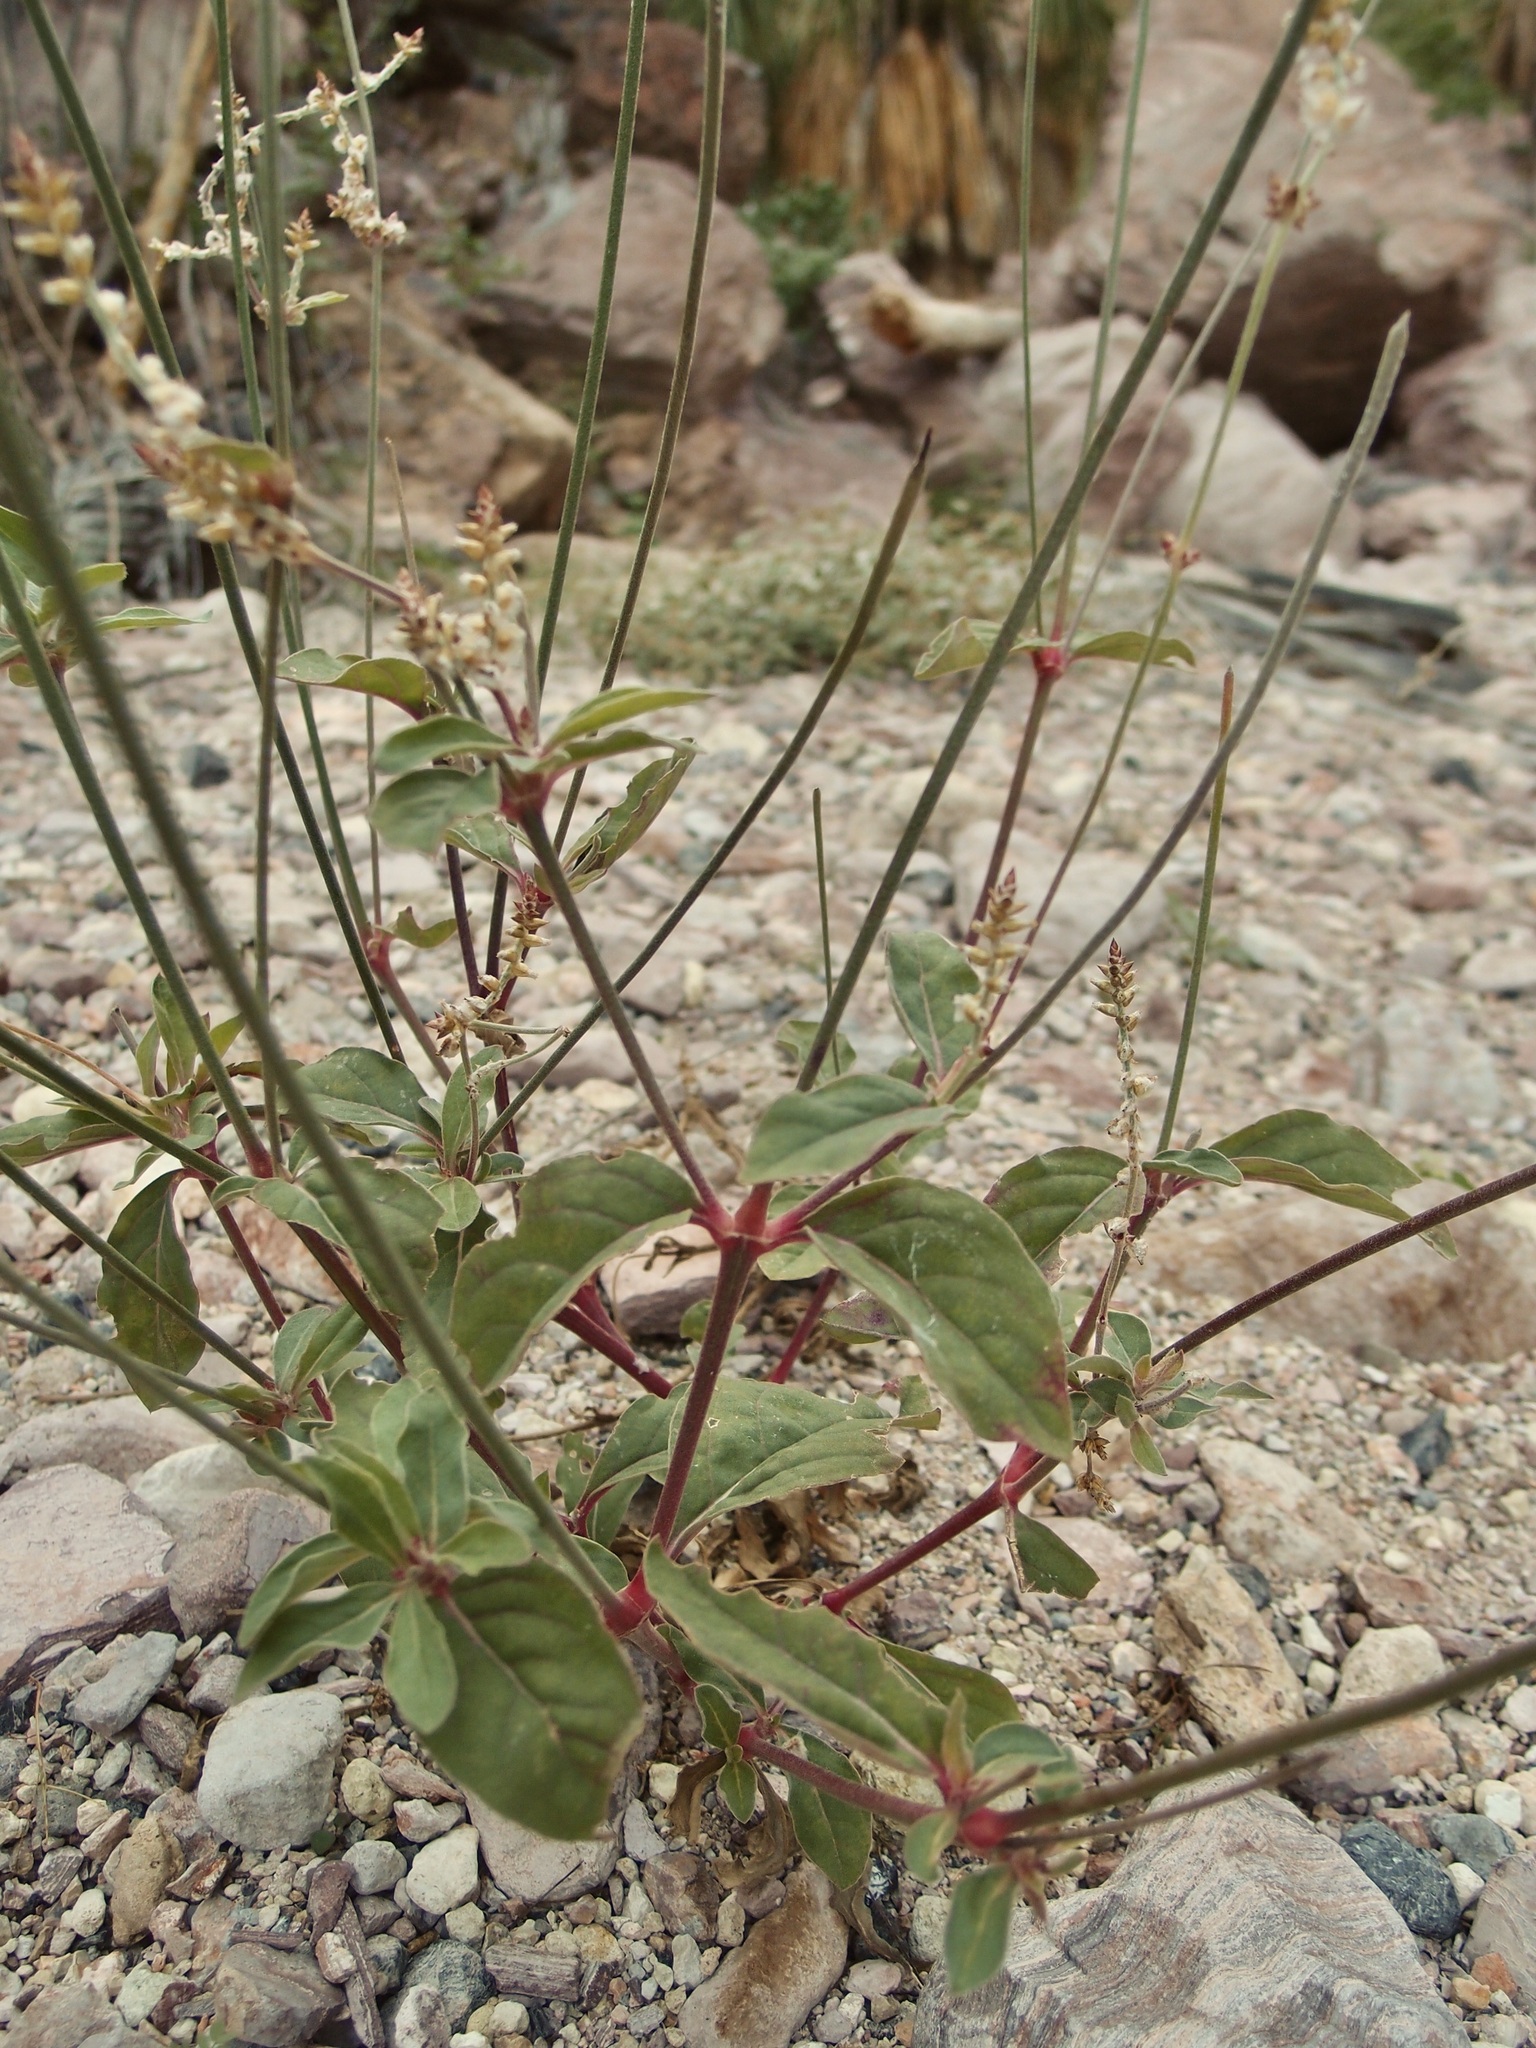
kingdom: Plantae
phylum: Tracheophyta
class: Magnoliopsida
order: Caryophyllales
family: Amaranthaceae
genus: Froelichia
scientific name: Froelichia interrupta
